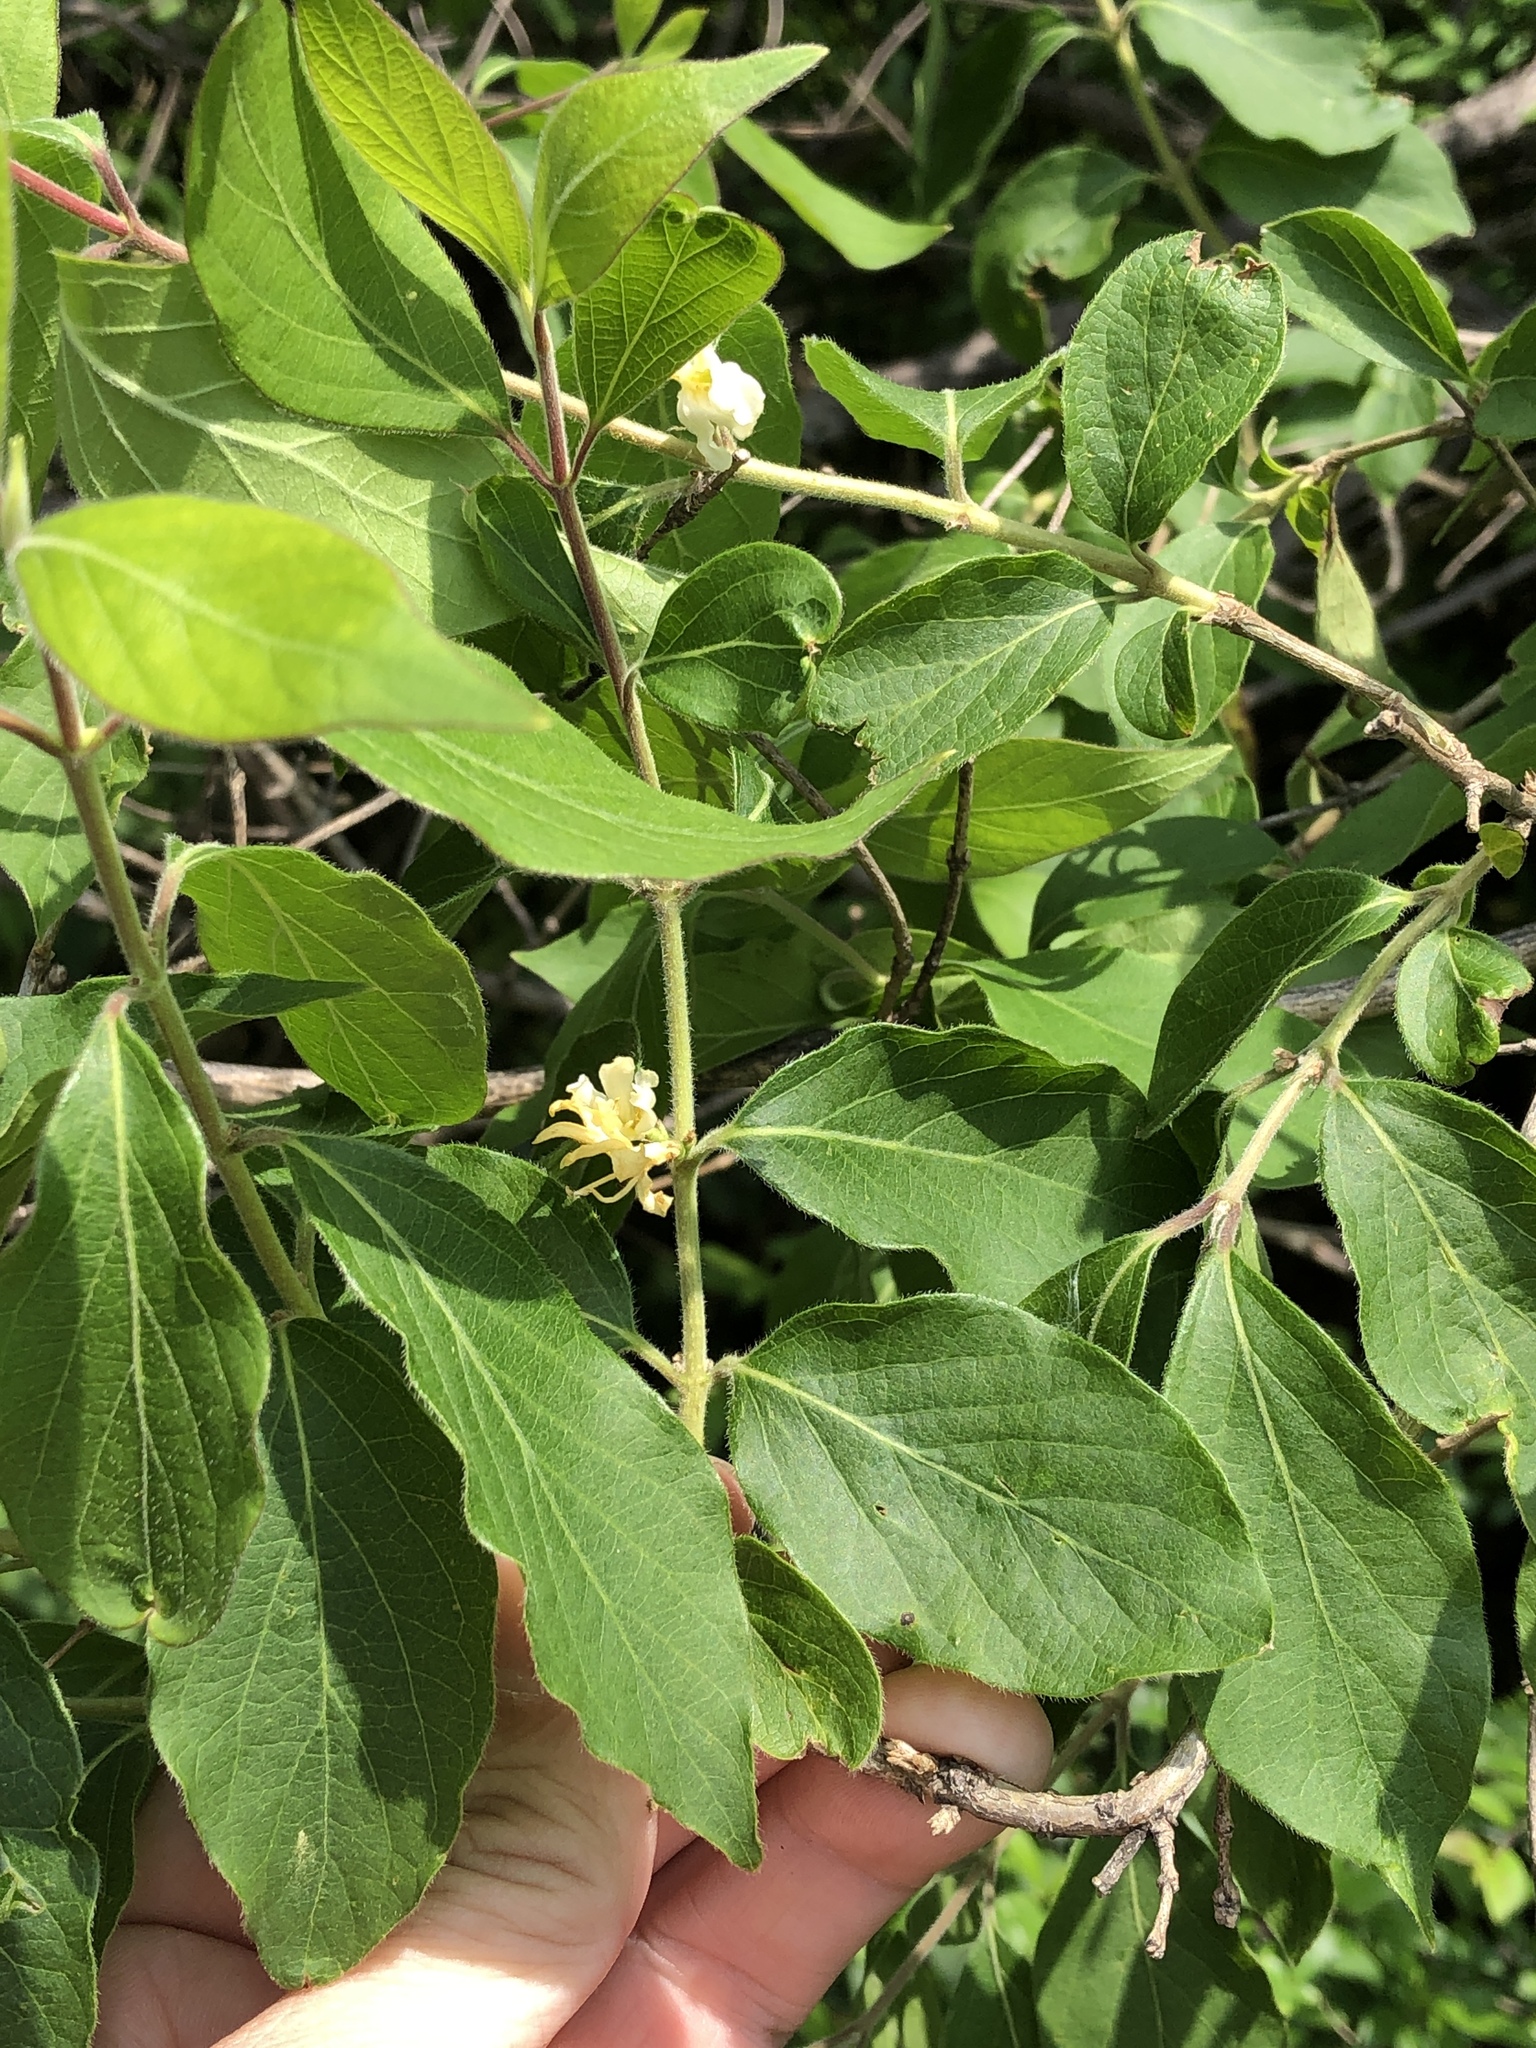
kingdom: Plantae
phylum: Tracheophyta
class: Magnoliopsida
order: Dipsacales
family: Caprifoliaceae
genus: Lonicera
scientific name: Lonicera maackii
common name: Amur honeysuckle
